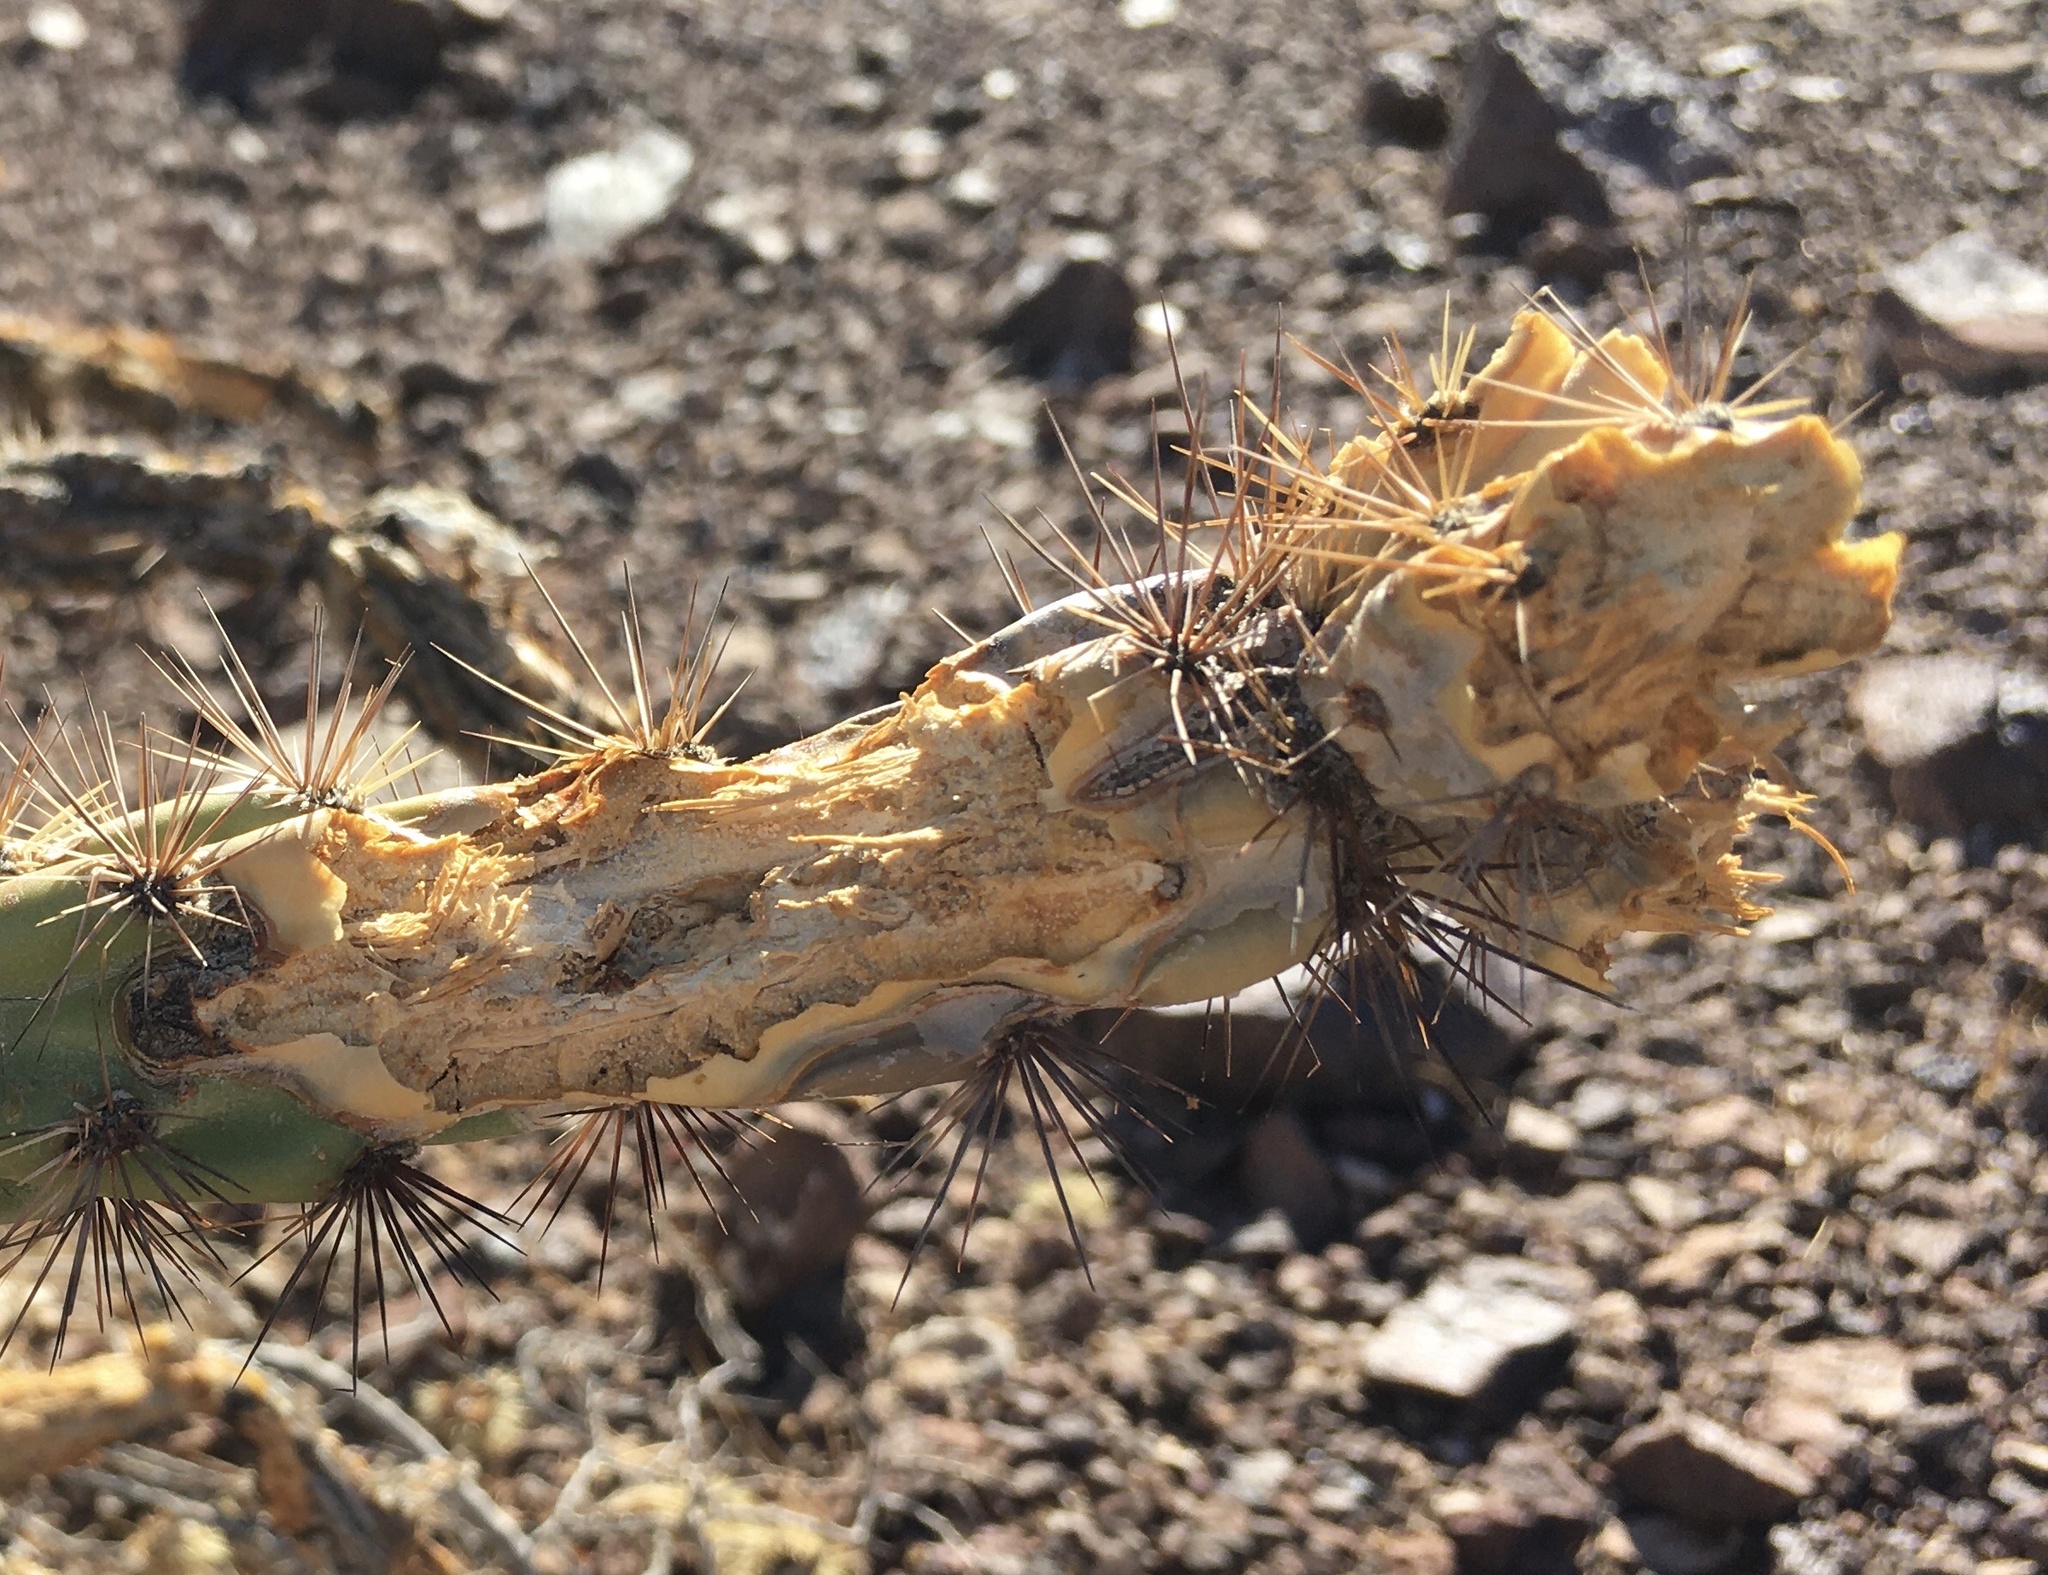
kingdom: Plantae
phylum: Tracheophyta
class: Magnoliopsida
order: Caryophyllales
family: Cactaceae
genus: Cylindropuntia
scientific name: Cylindropuntia acanthocarpa
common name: Buckhorn cholla
